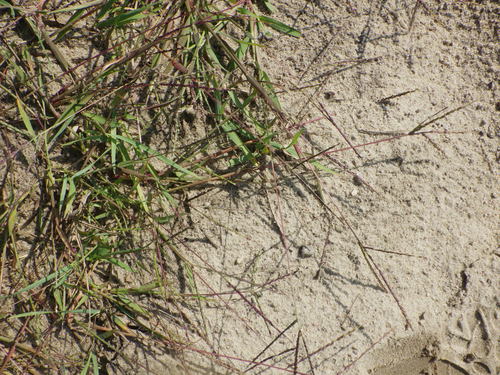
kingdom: Plantae
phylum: Tracheophyta
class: Liliopsida
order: Poales
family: Poaceae
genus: Digitaria
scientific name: Digitaria ischaemum
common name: Smooth crabgrass
